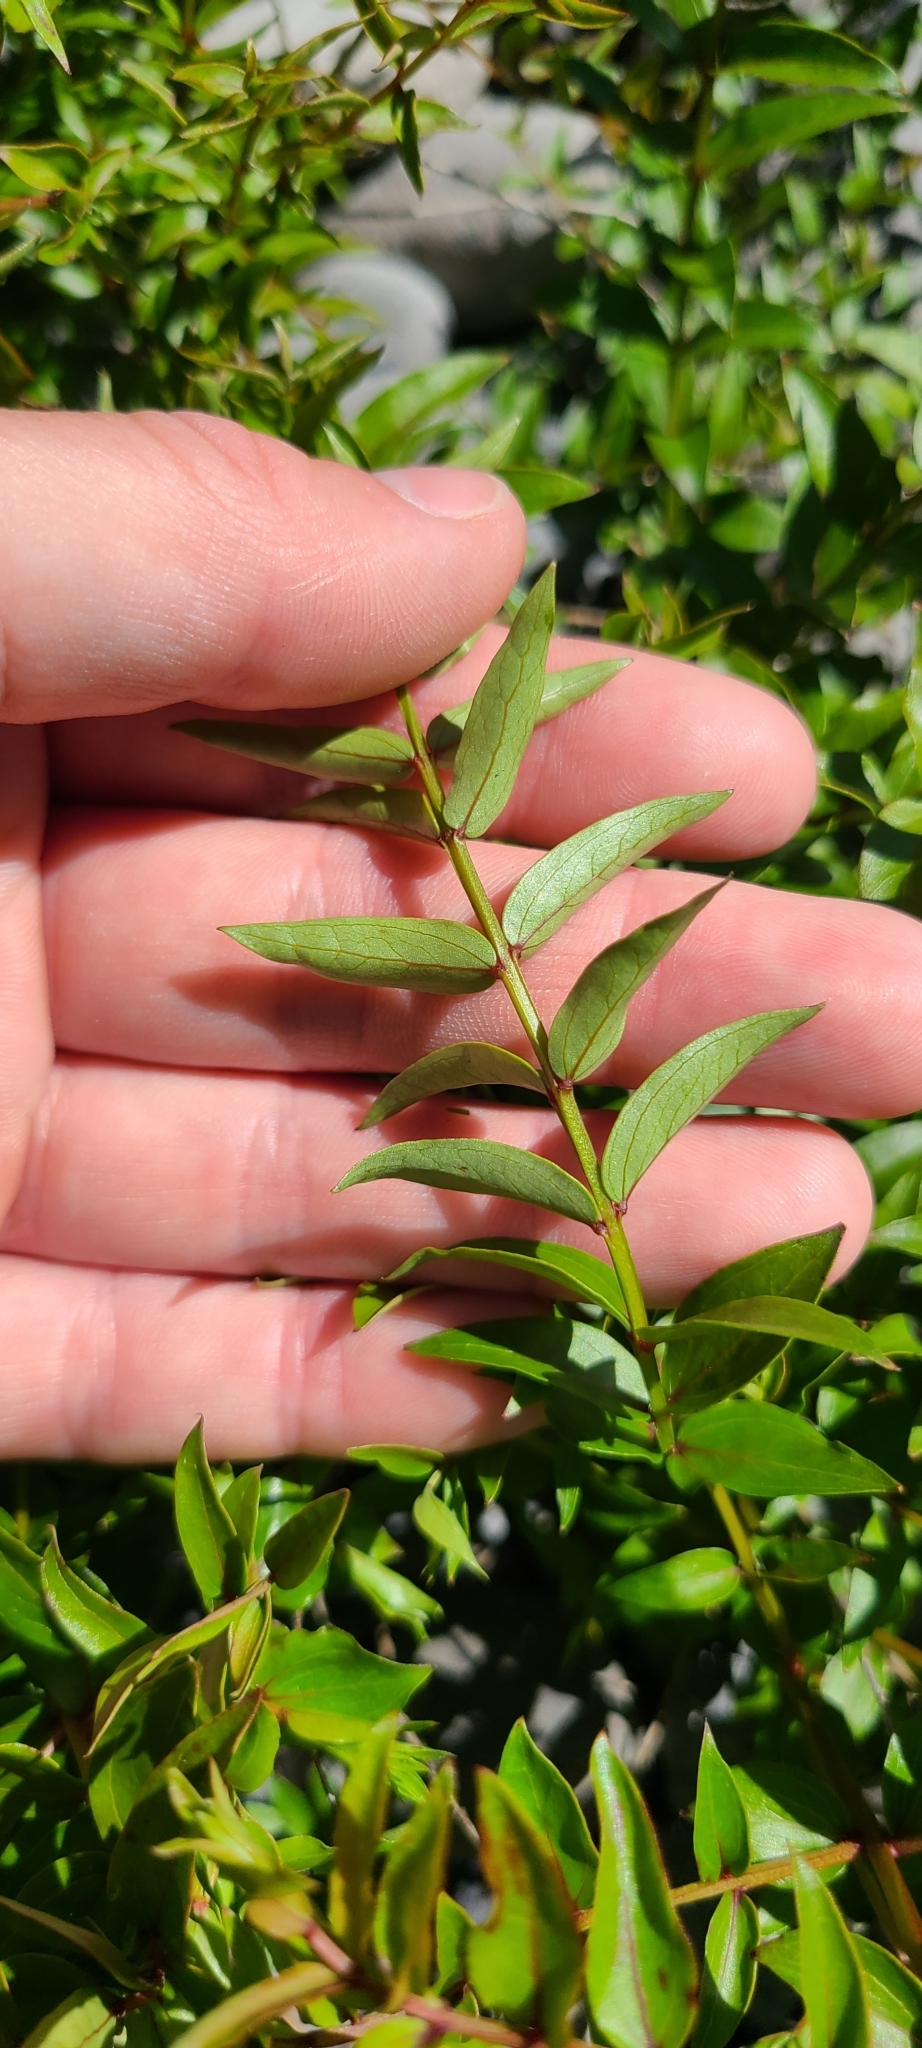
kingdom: Plantae
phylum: Tracheophyta
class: Magnoliopsida
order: Cucurbitales
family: Coriariaceae
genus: Coriaria
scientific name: Coriaria plumosa
